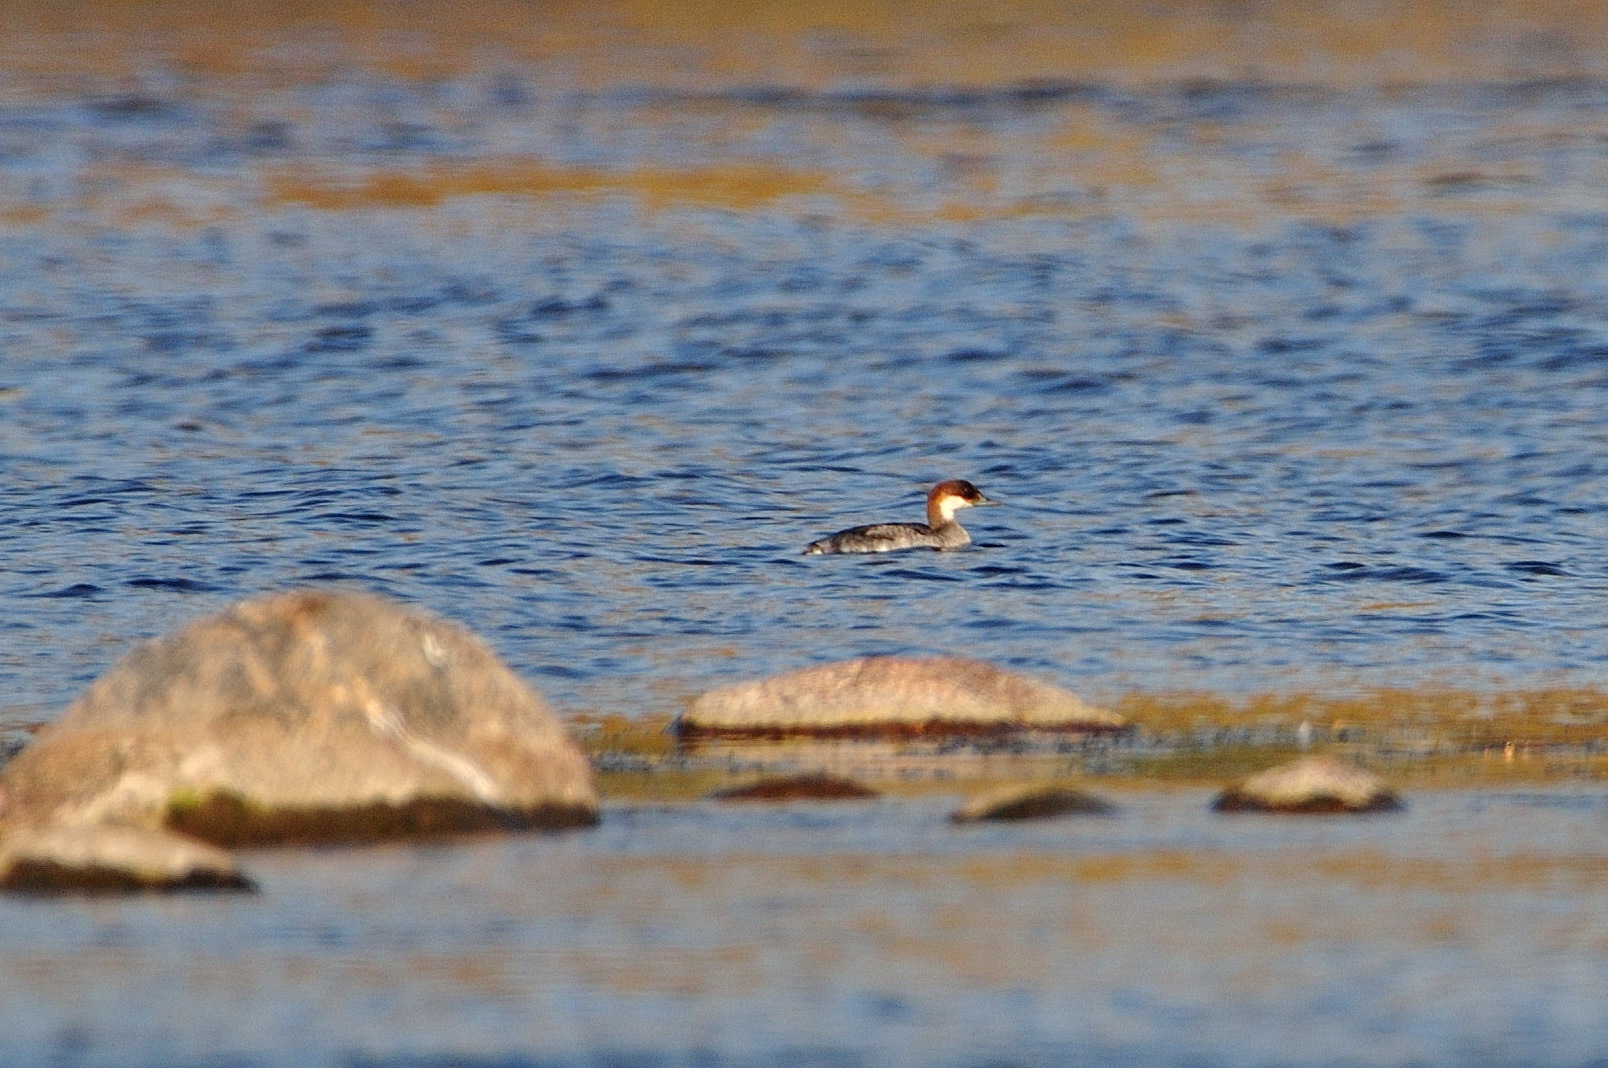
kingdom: Animalia
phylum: Chordata
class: Aves
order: Anseriformes
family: Anatidae
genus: Mergellus
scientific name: Mergellus albellus
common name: Smew
